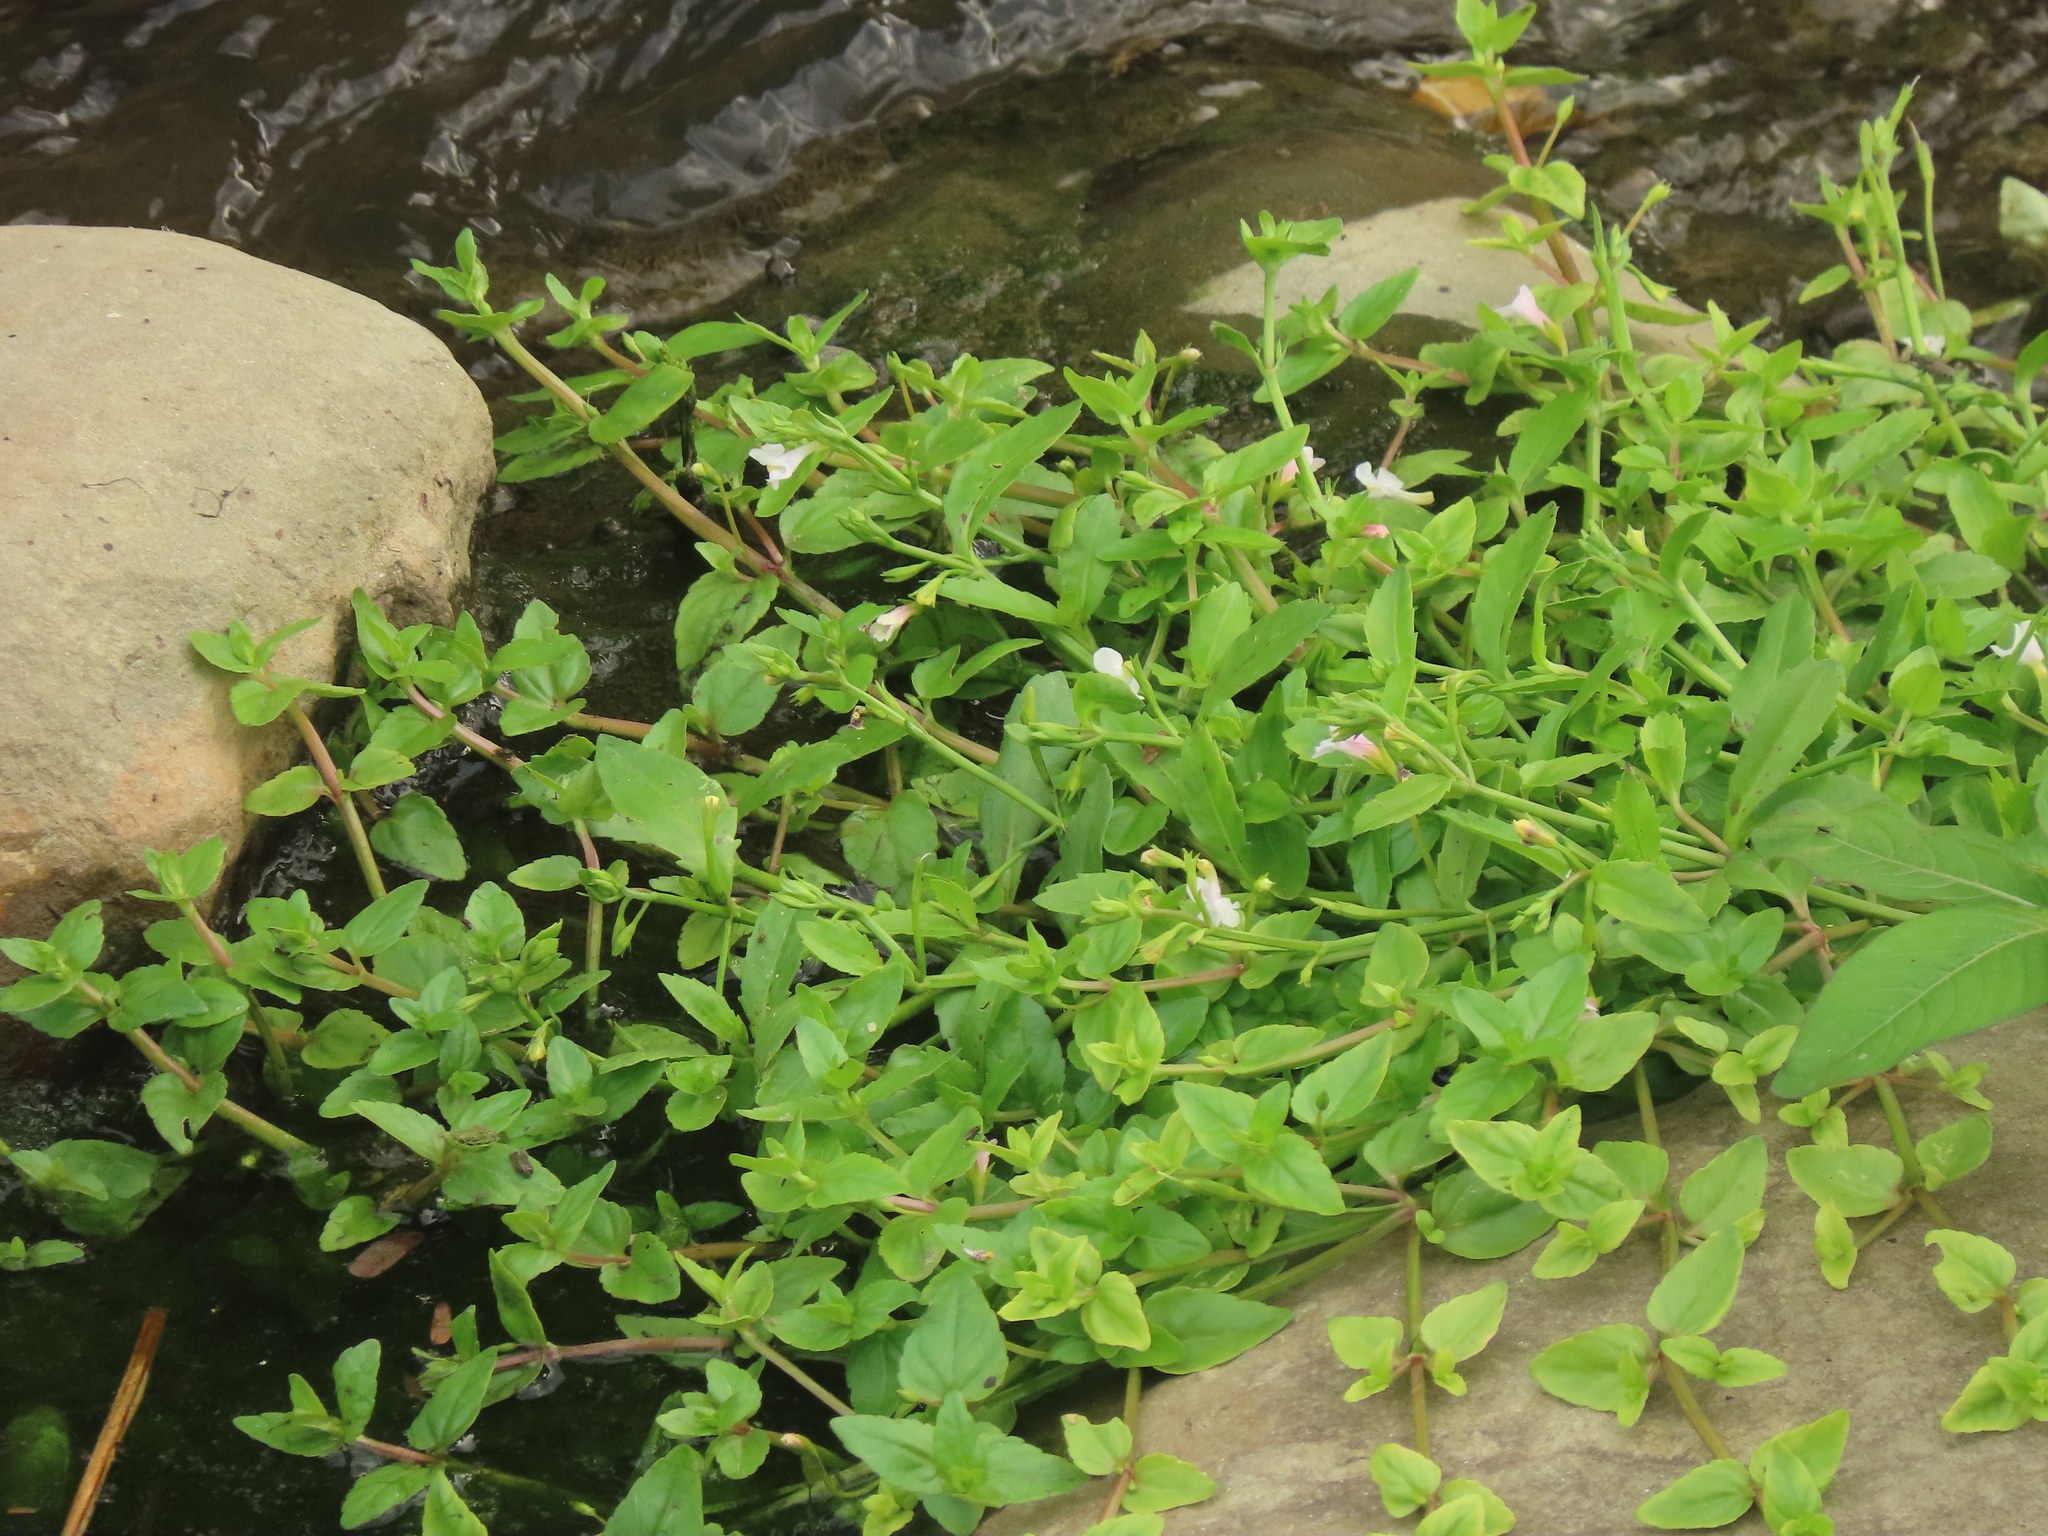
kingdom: Plantae
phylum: Tracheophyta
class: Magnoliopsida
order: Lamiales
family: Linderniaceae
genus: Torenia
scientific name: Torenia anagallis
